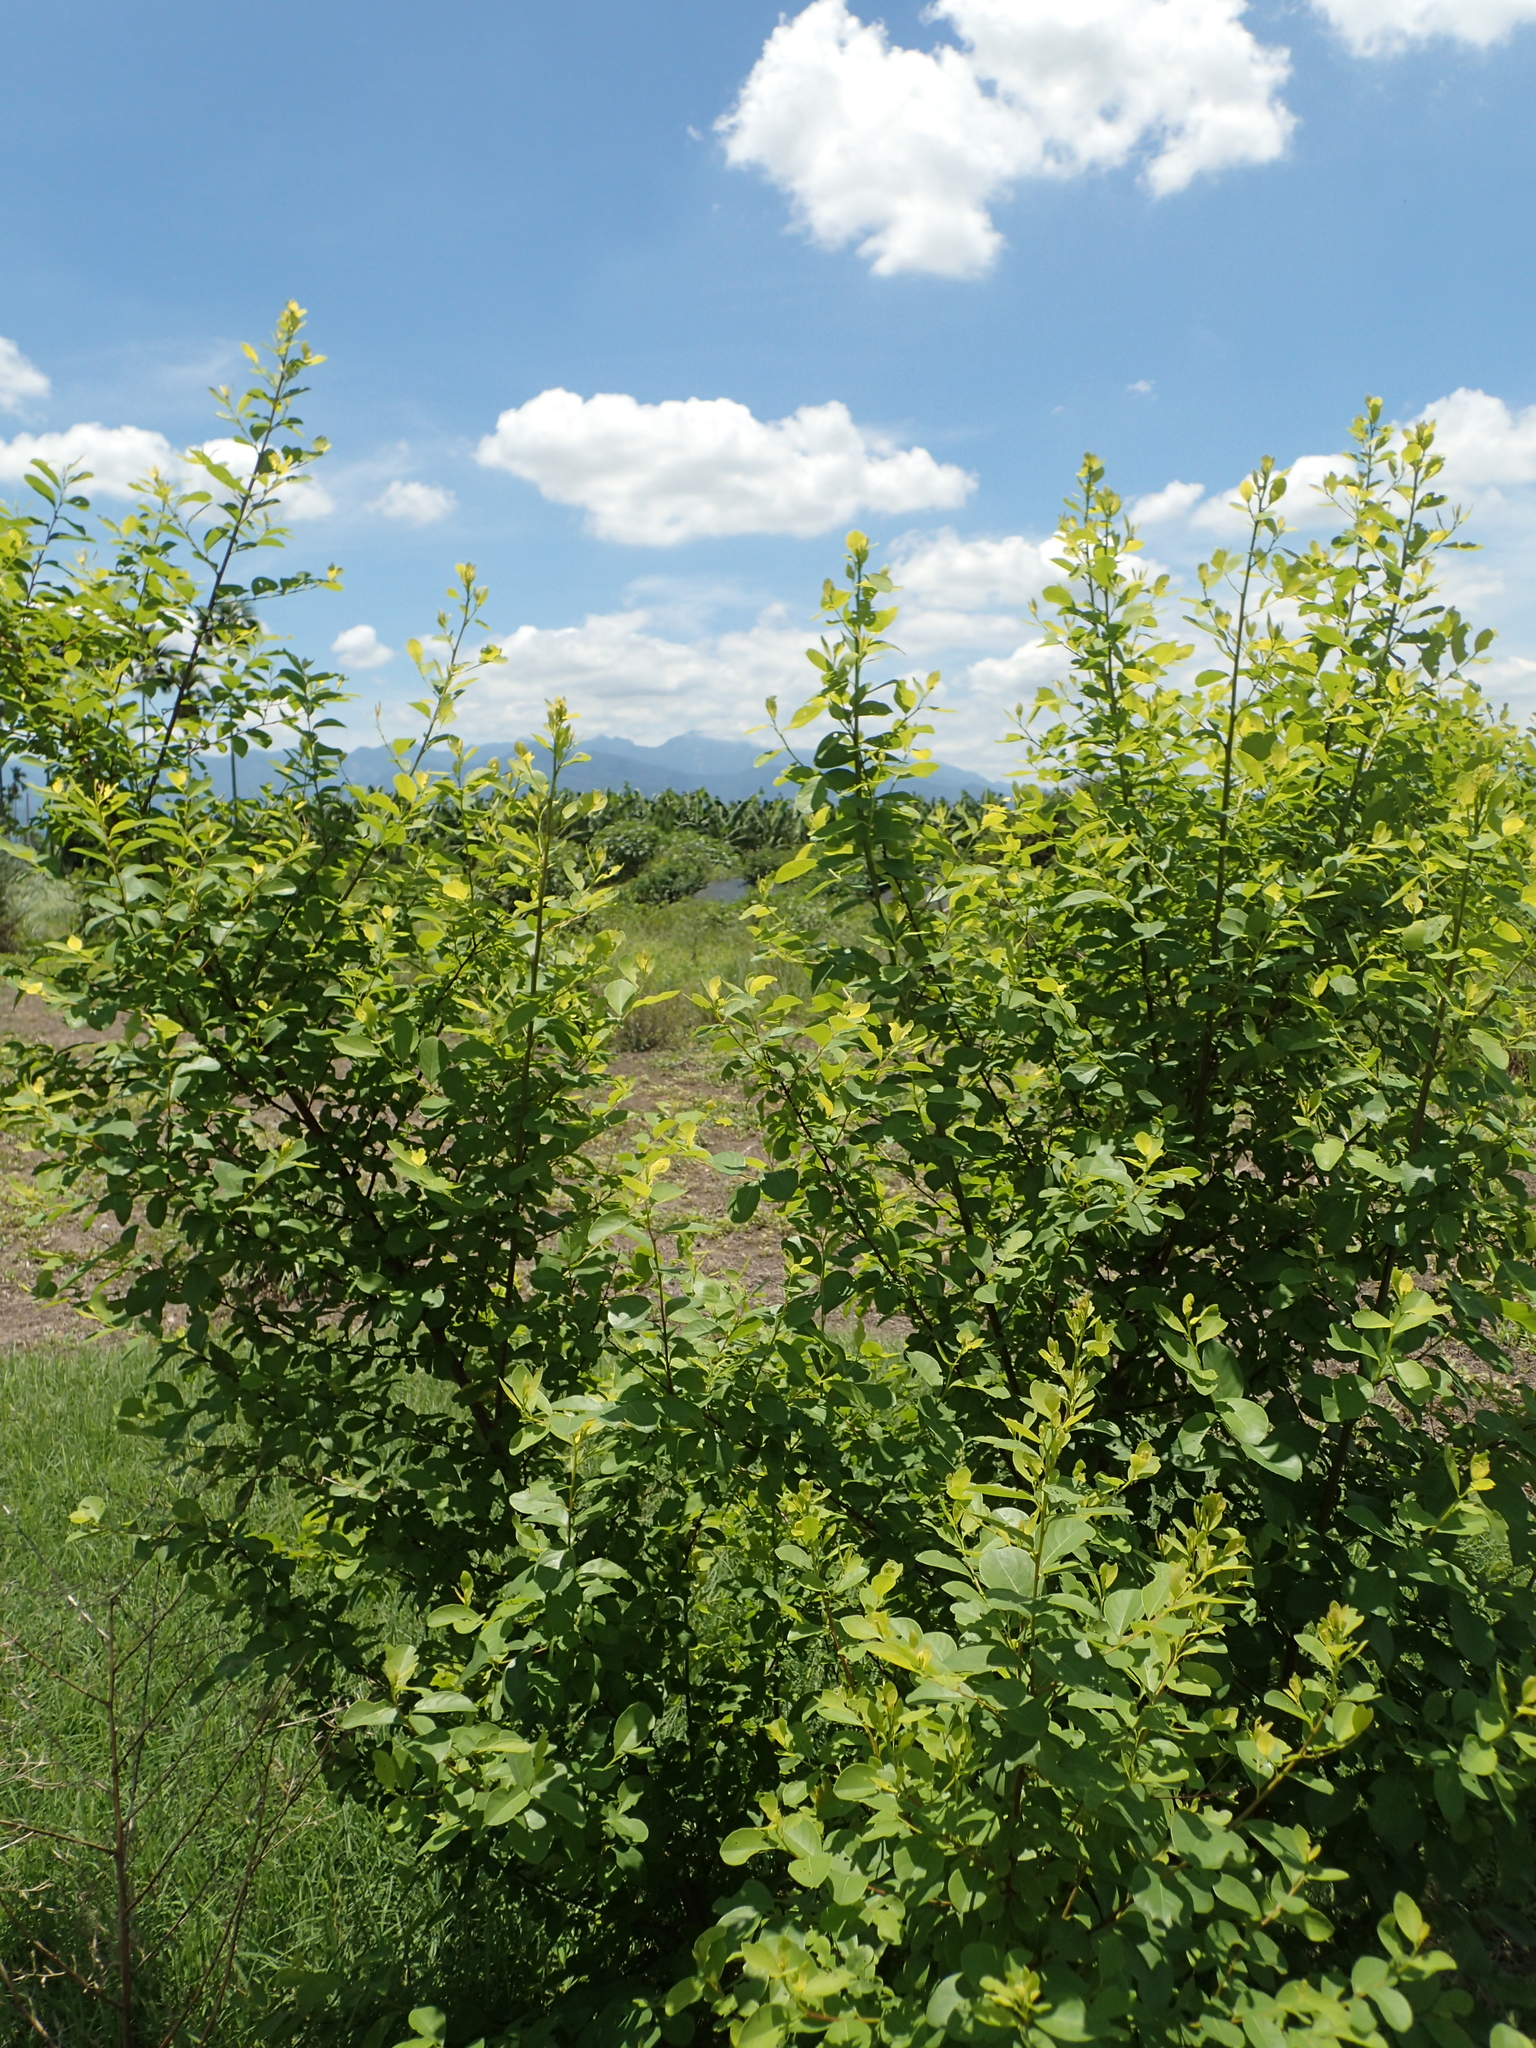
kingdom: Plantae
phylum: Tracheophyta
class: Magnoliopsida
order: Malpighiales
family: Phyllanthaceae
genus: Flueggea
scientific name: Flueggea virosa
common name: Common bushweed
